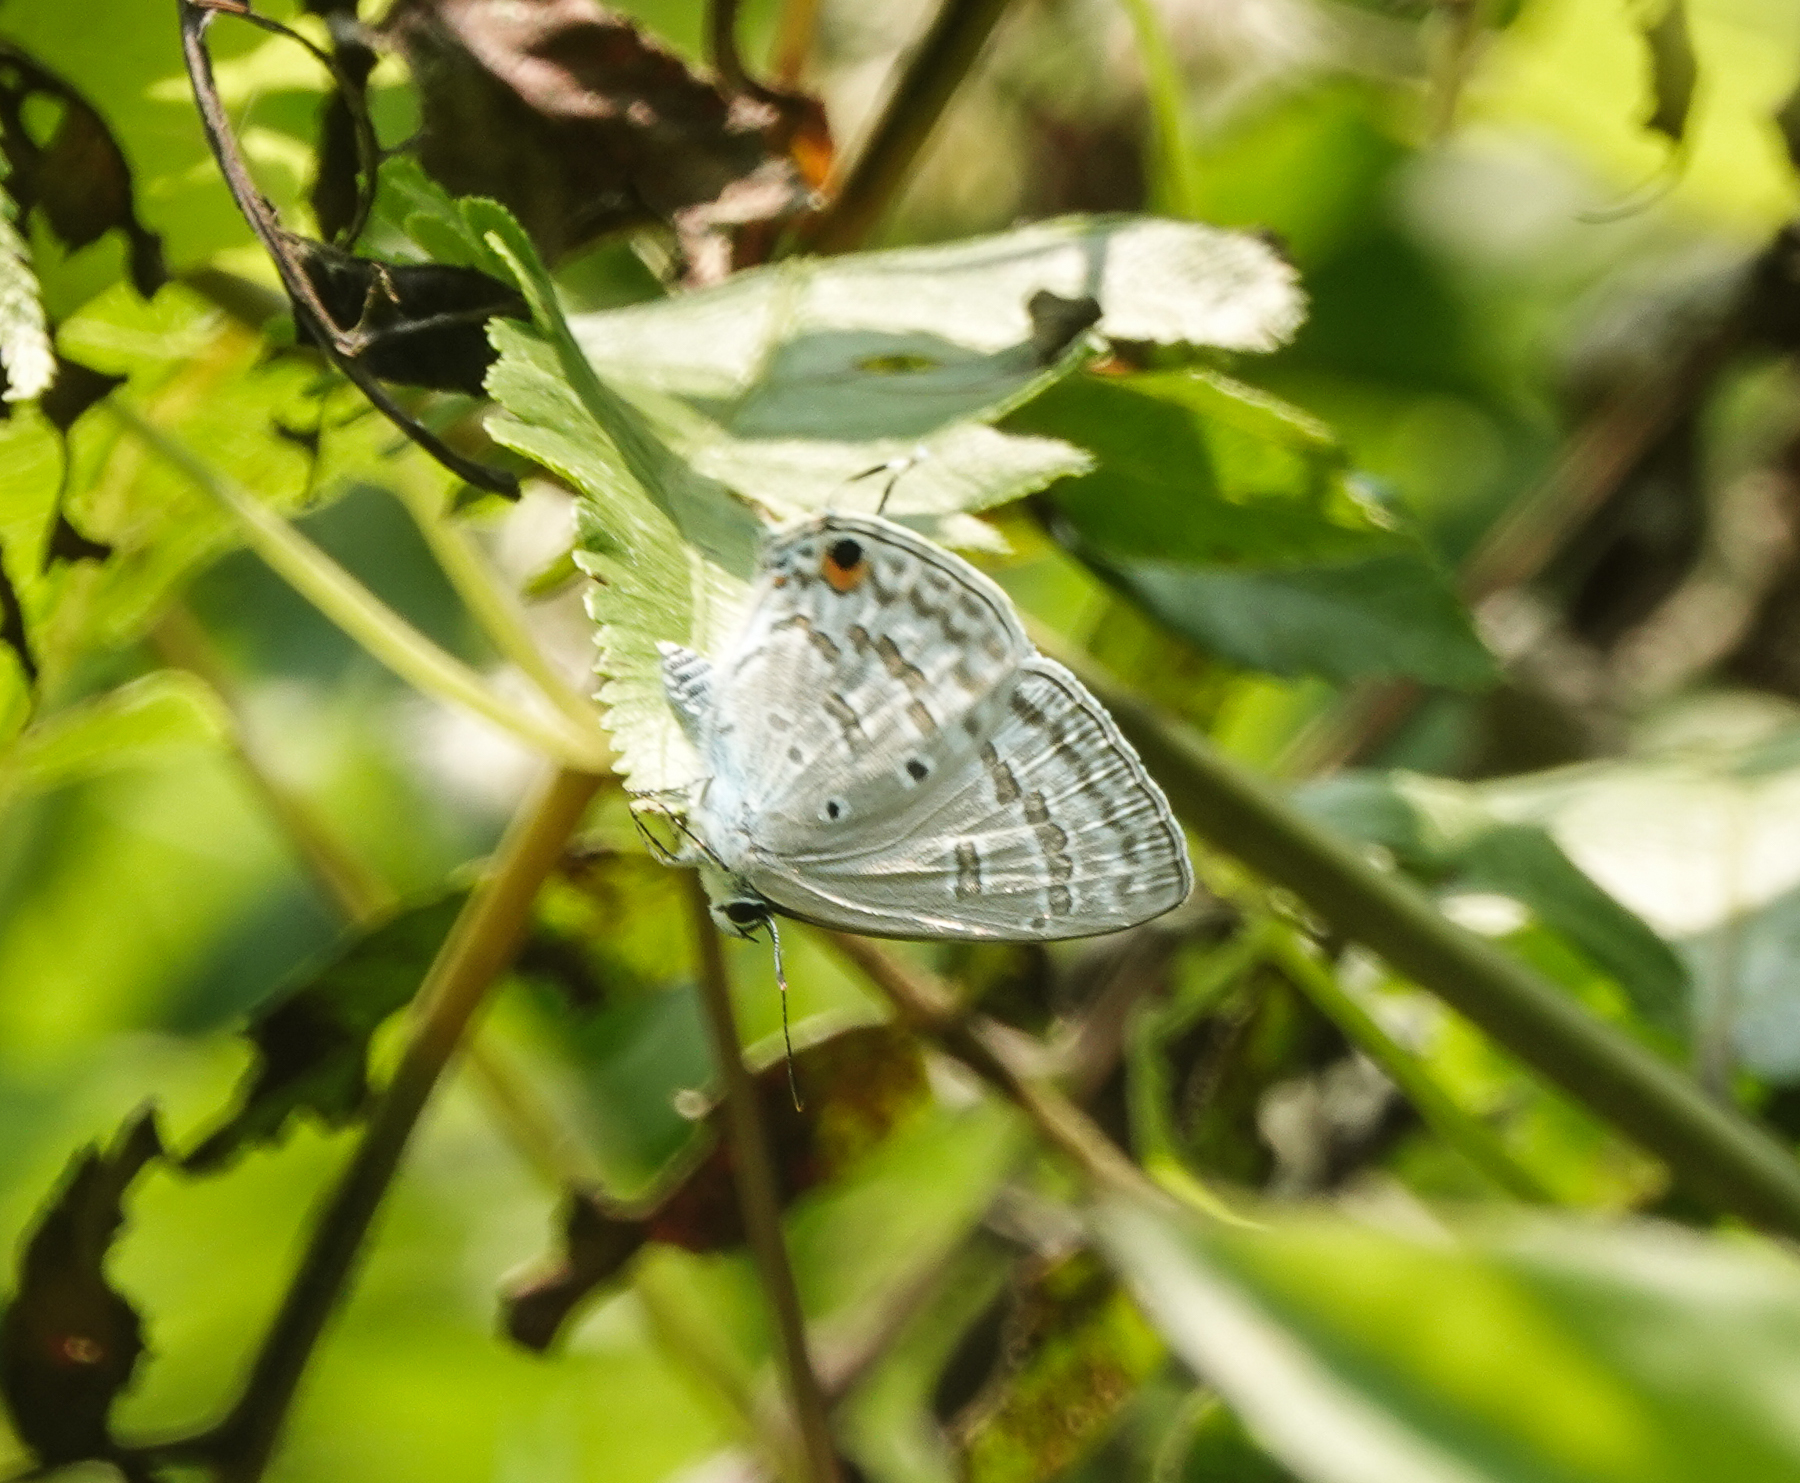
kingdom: Animalia
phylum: Arthropoda
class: Insecta
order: Lepidoptera
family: Lycaenidae
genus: Catochrysops
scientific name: Catochrysops panormus
